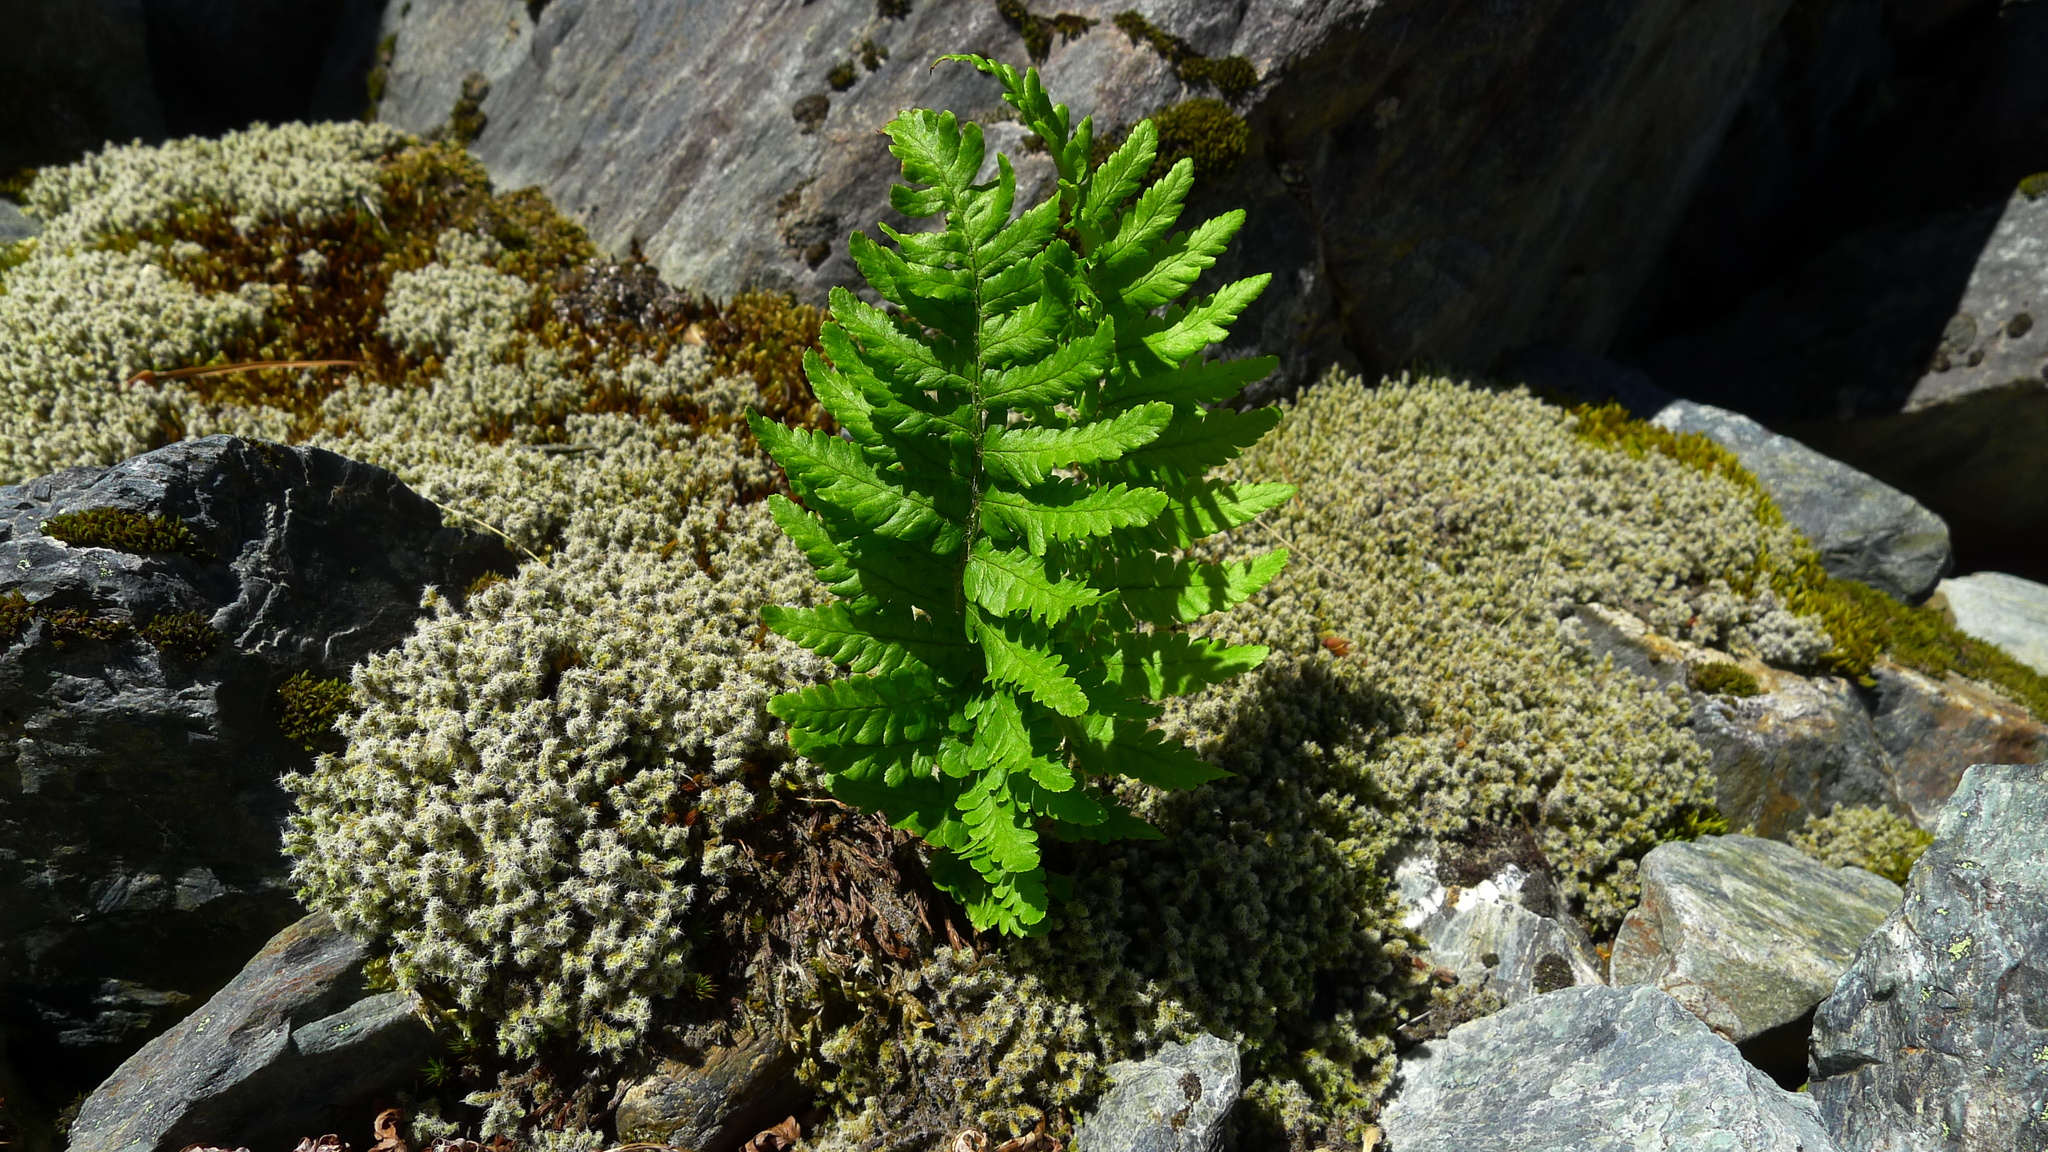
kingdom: Plantae
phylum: Tracheophyta
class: Polypodiopsida
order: Polypodiales
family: Dryopteridaceae
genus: Dryopteris
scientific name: Dryopteris filix-mas
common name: Male fern
